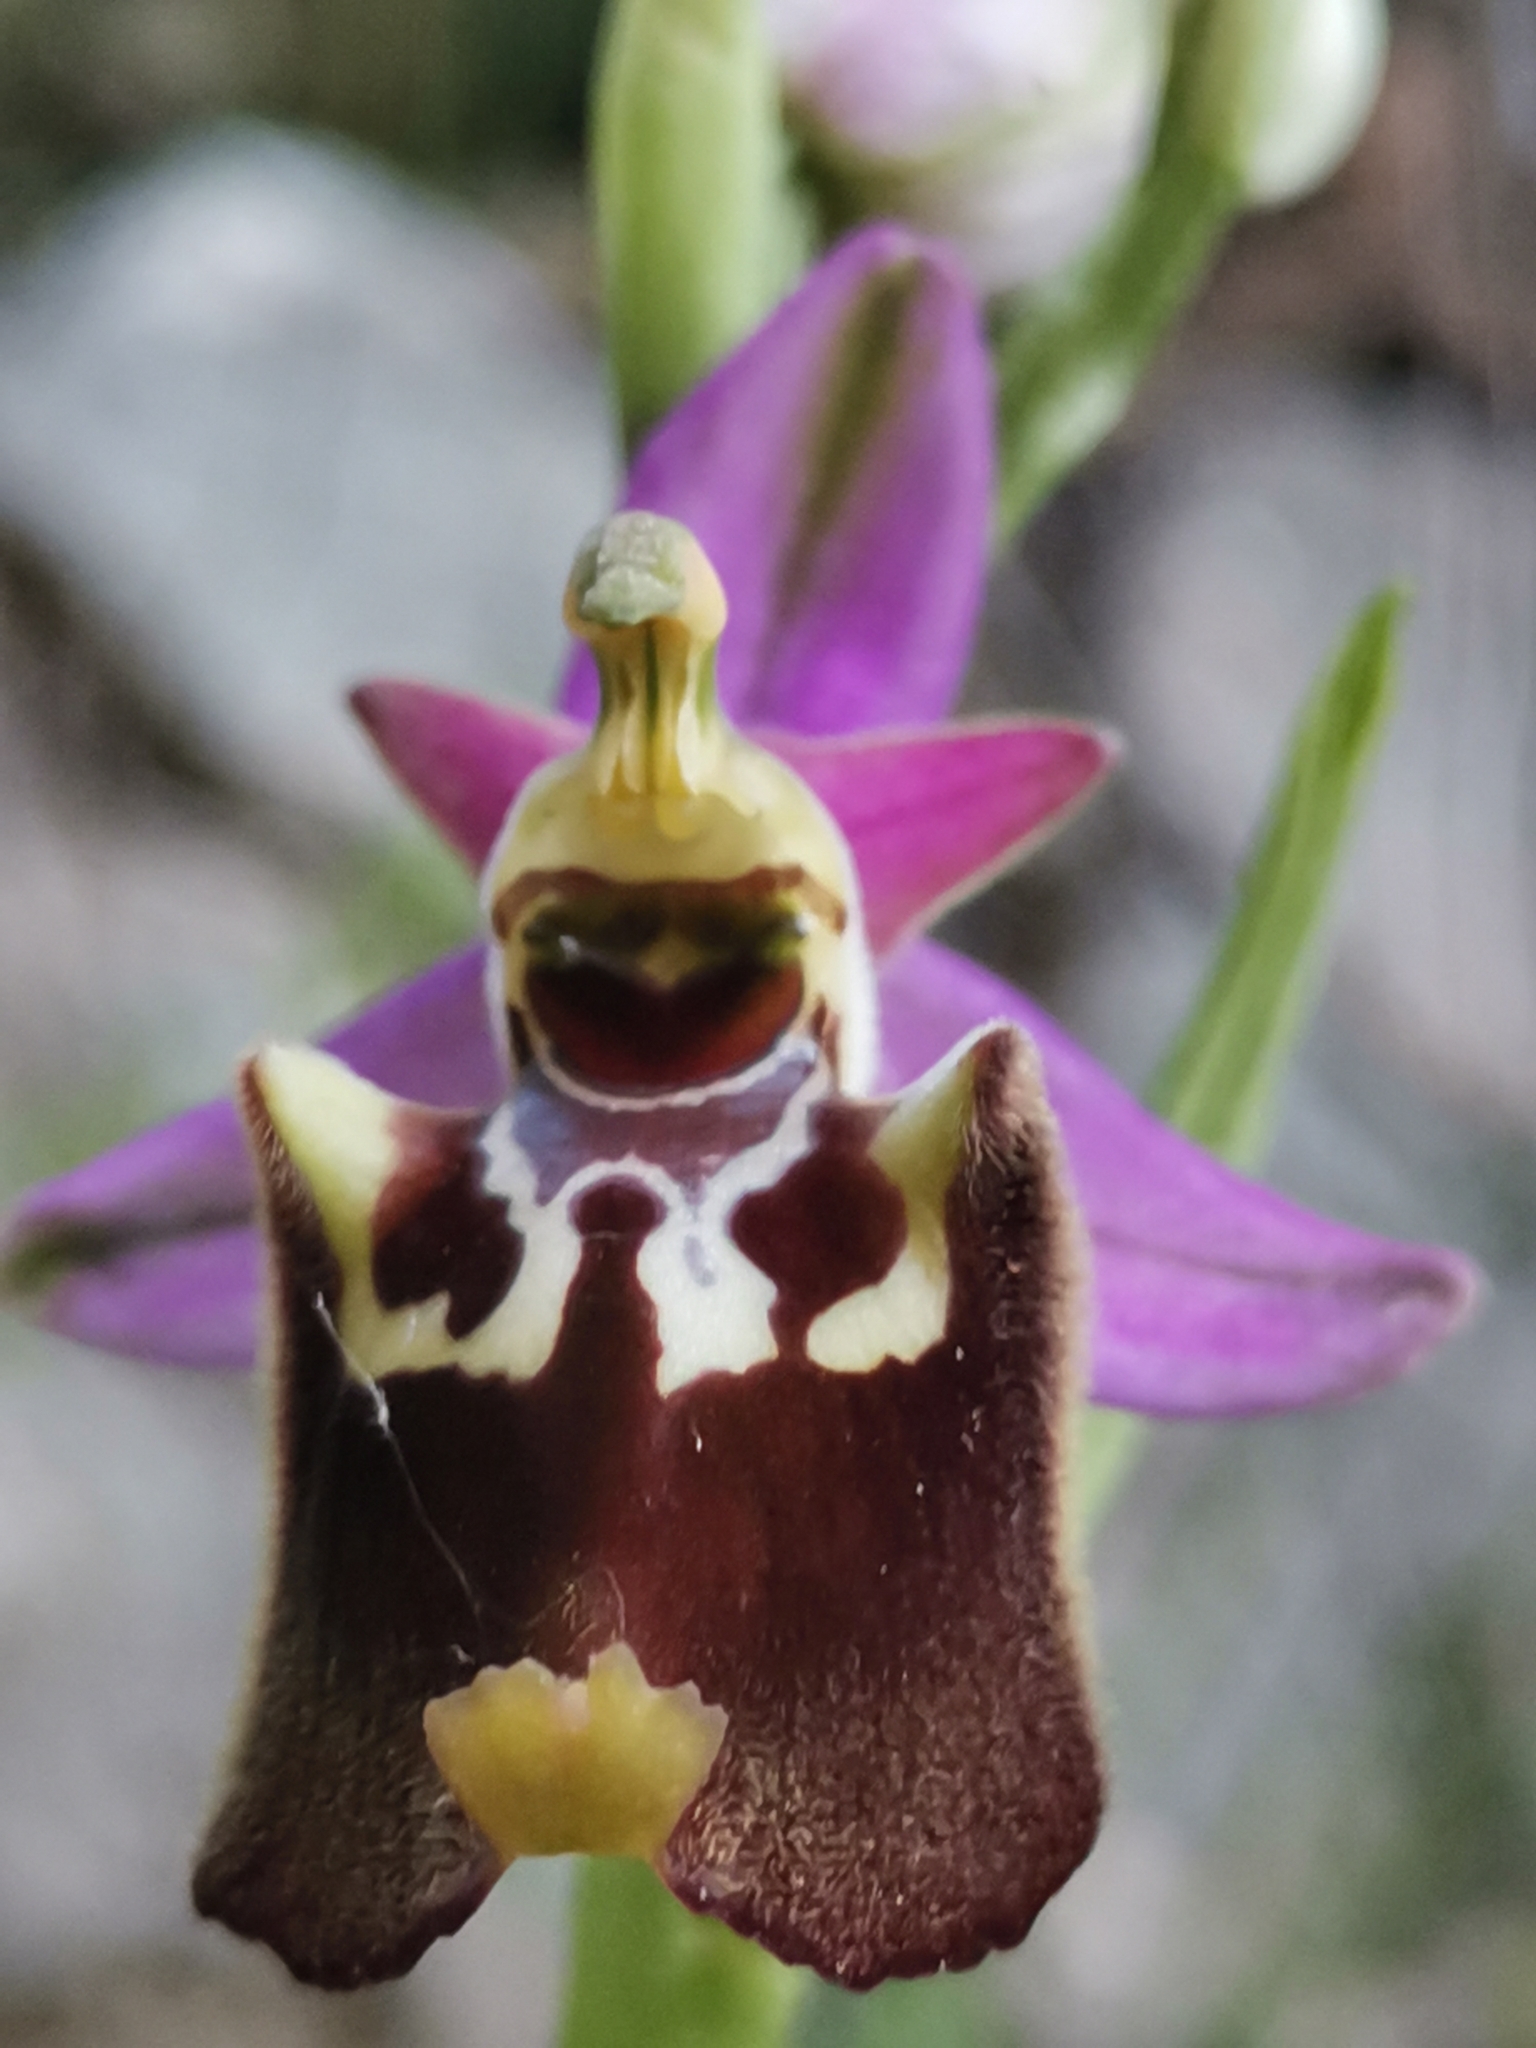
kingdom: Plantae
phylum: Tracheophyta
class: Liliopsida
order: Asparagales
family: Orchidaceae
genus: Ophrys
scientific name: Ophrys holosericea
